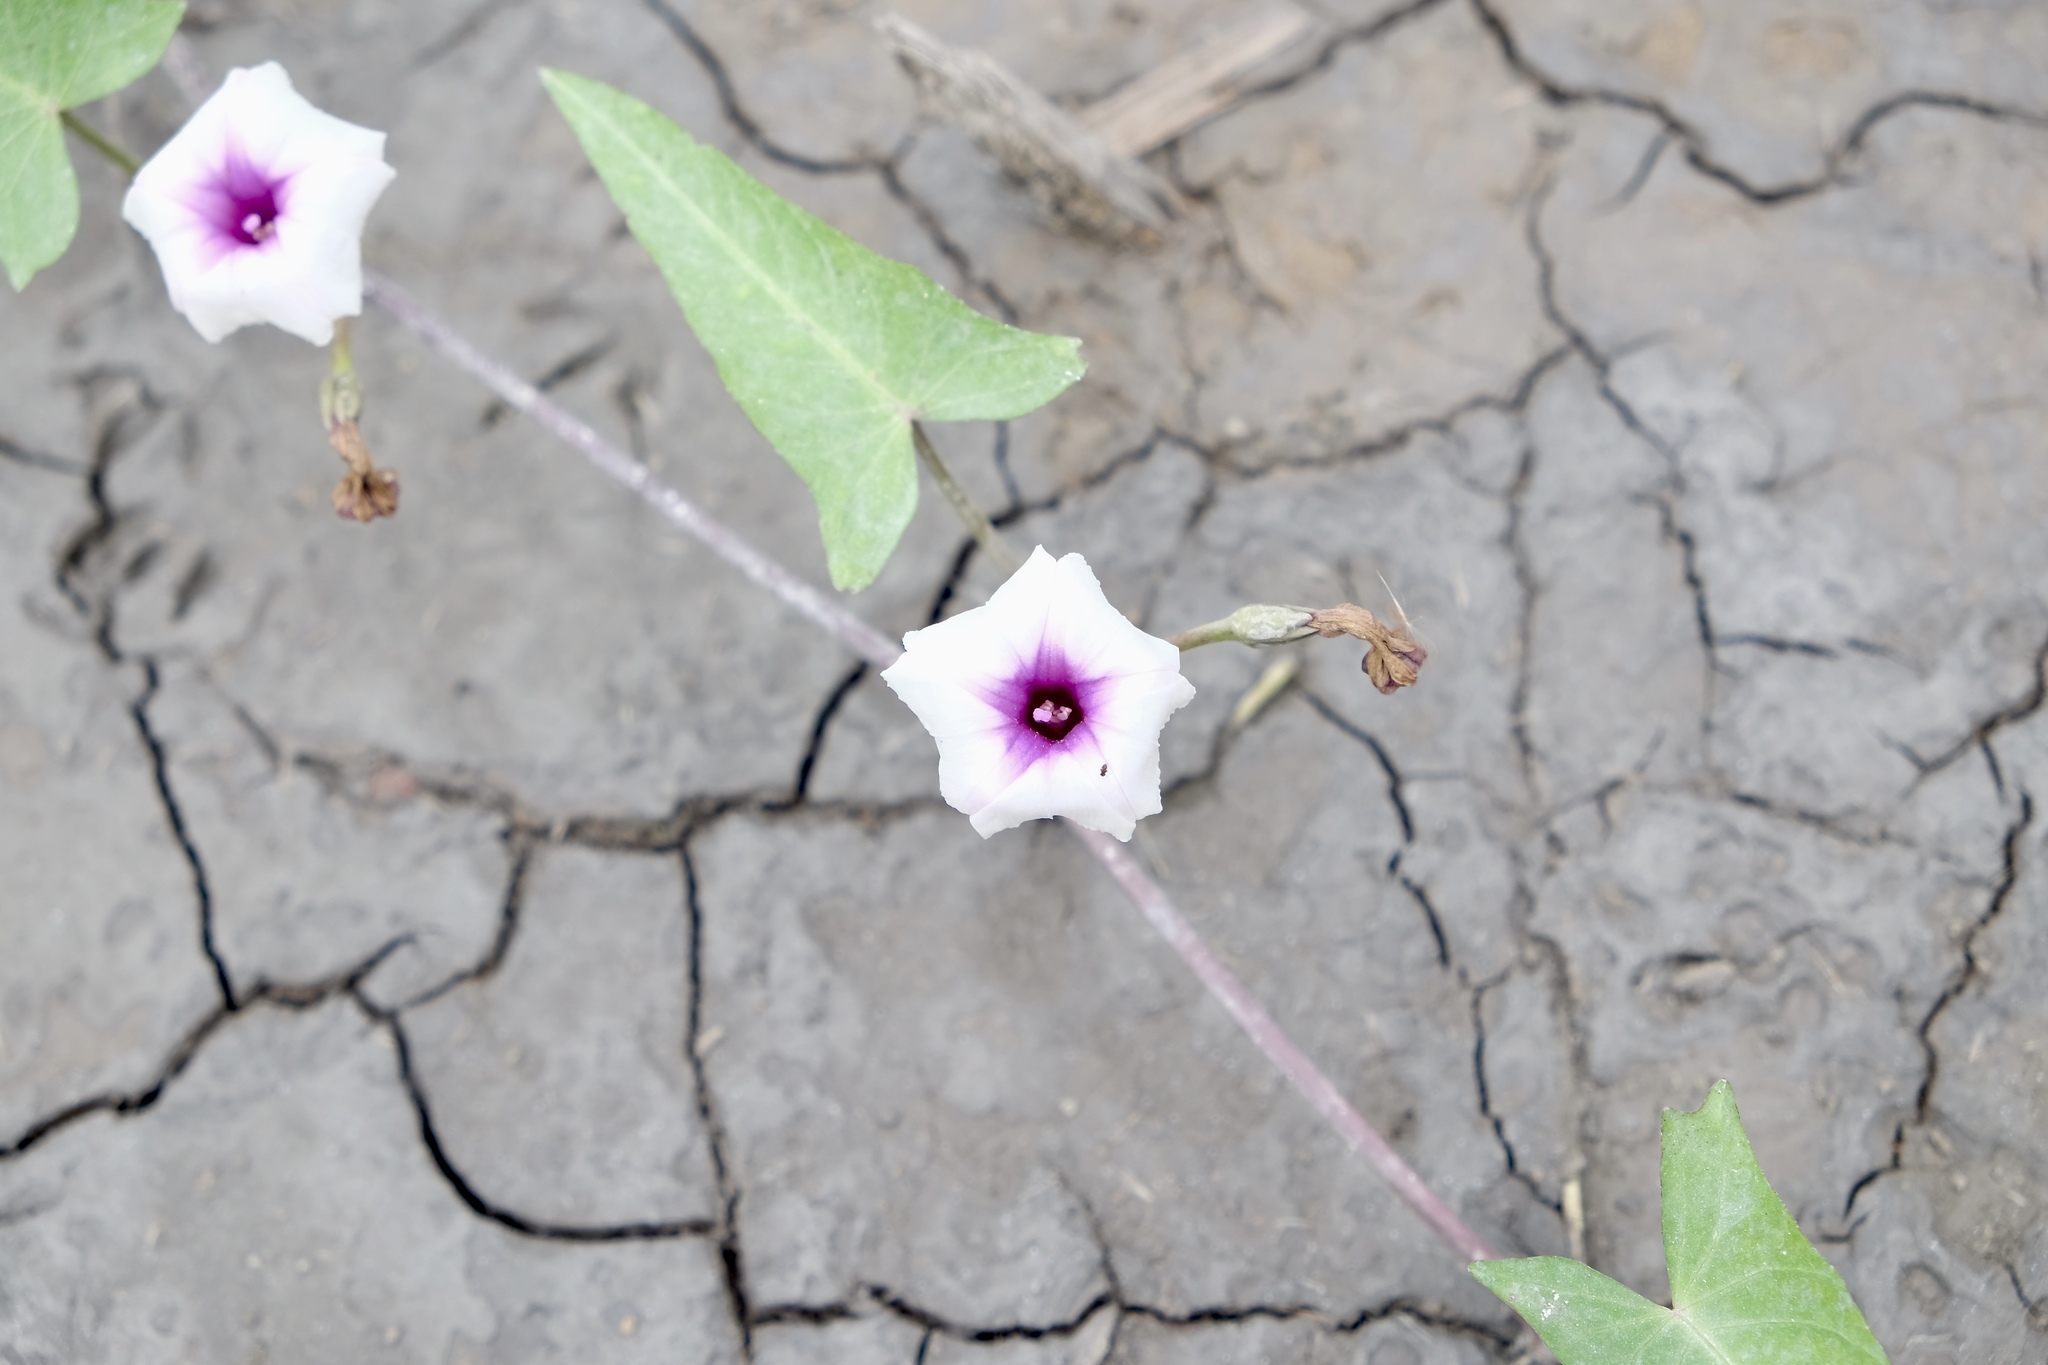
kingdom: Plantae
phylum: Tracheophyta
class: Magnoliopsida
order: Solanales
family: Convolvulaceae
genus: Ipomoea
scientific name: Ipomoea aquatica
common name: Swamp morning-glory
